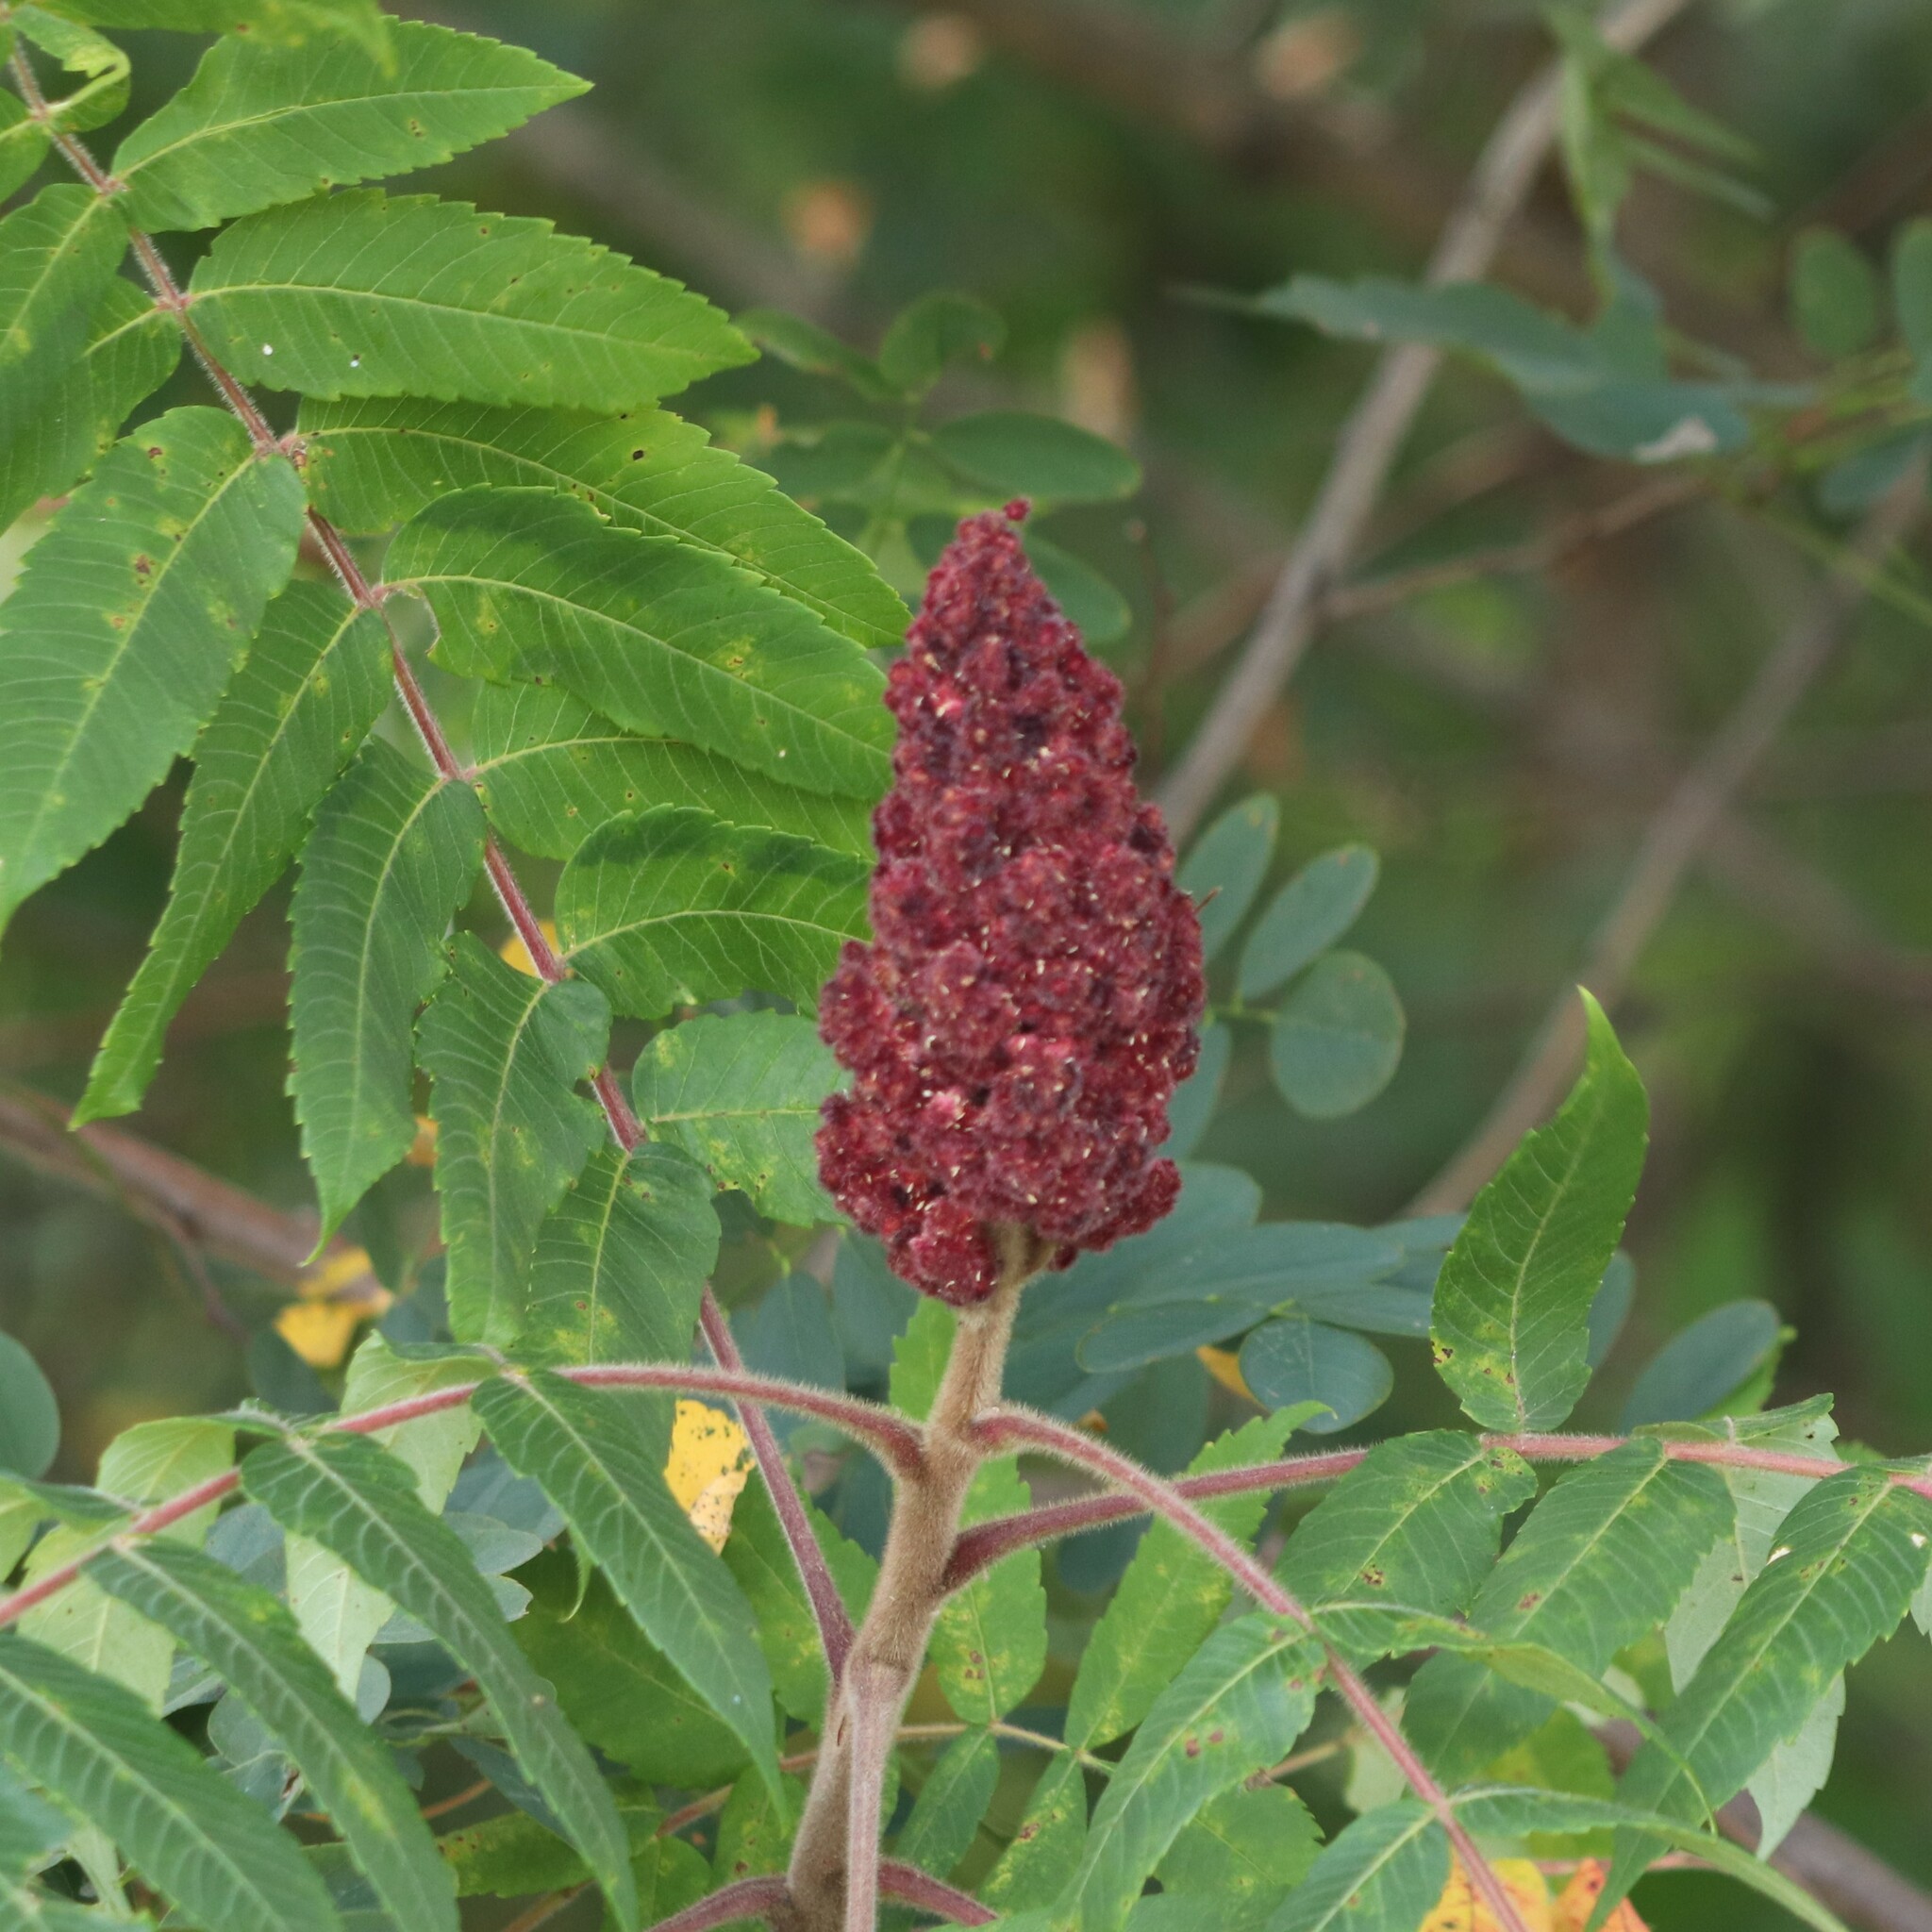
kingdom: Plantae
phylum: Tracheophyta
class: Magnoliopsida
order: Sapindales
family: Anacardiaceae
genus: Rhus
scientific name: Rhus typhina
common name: Staghorn sumac
